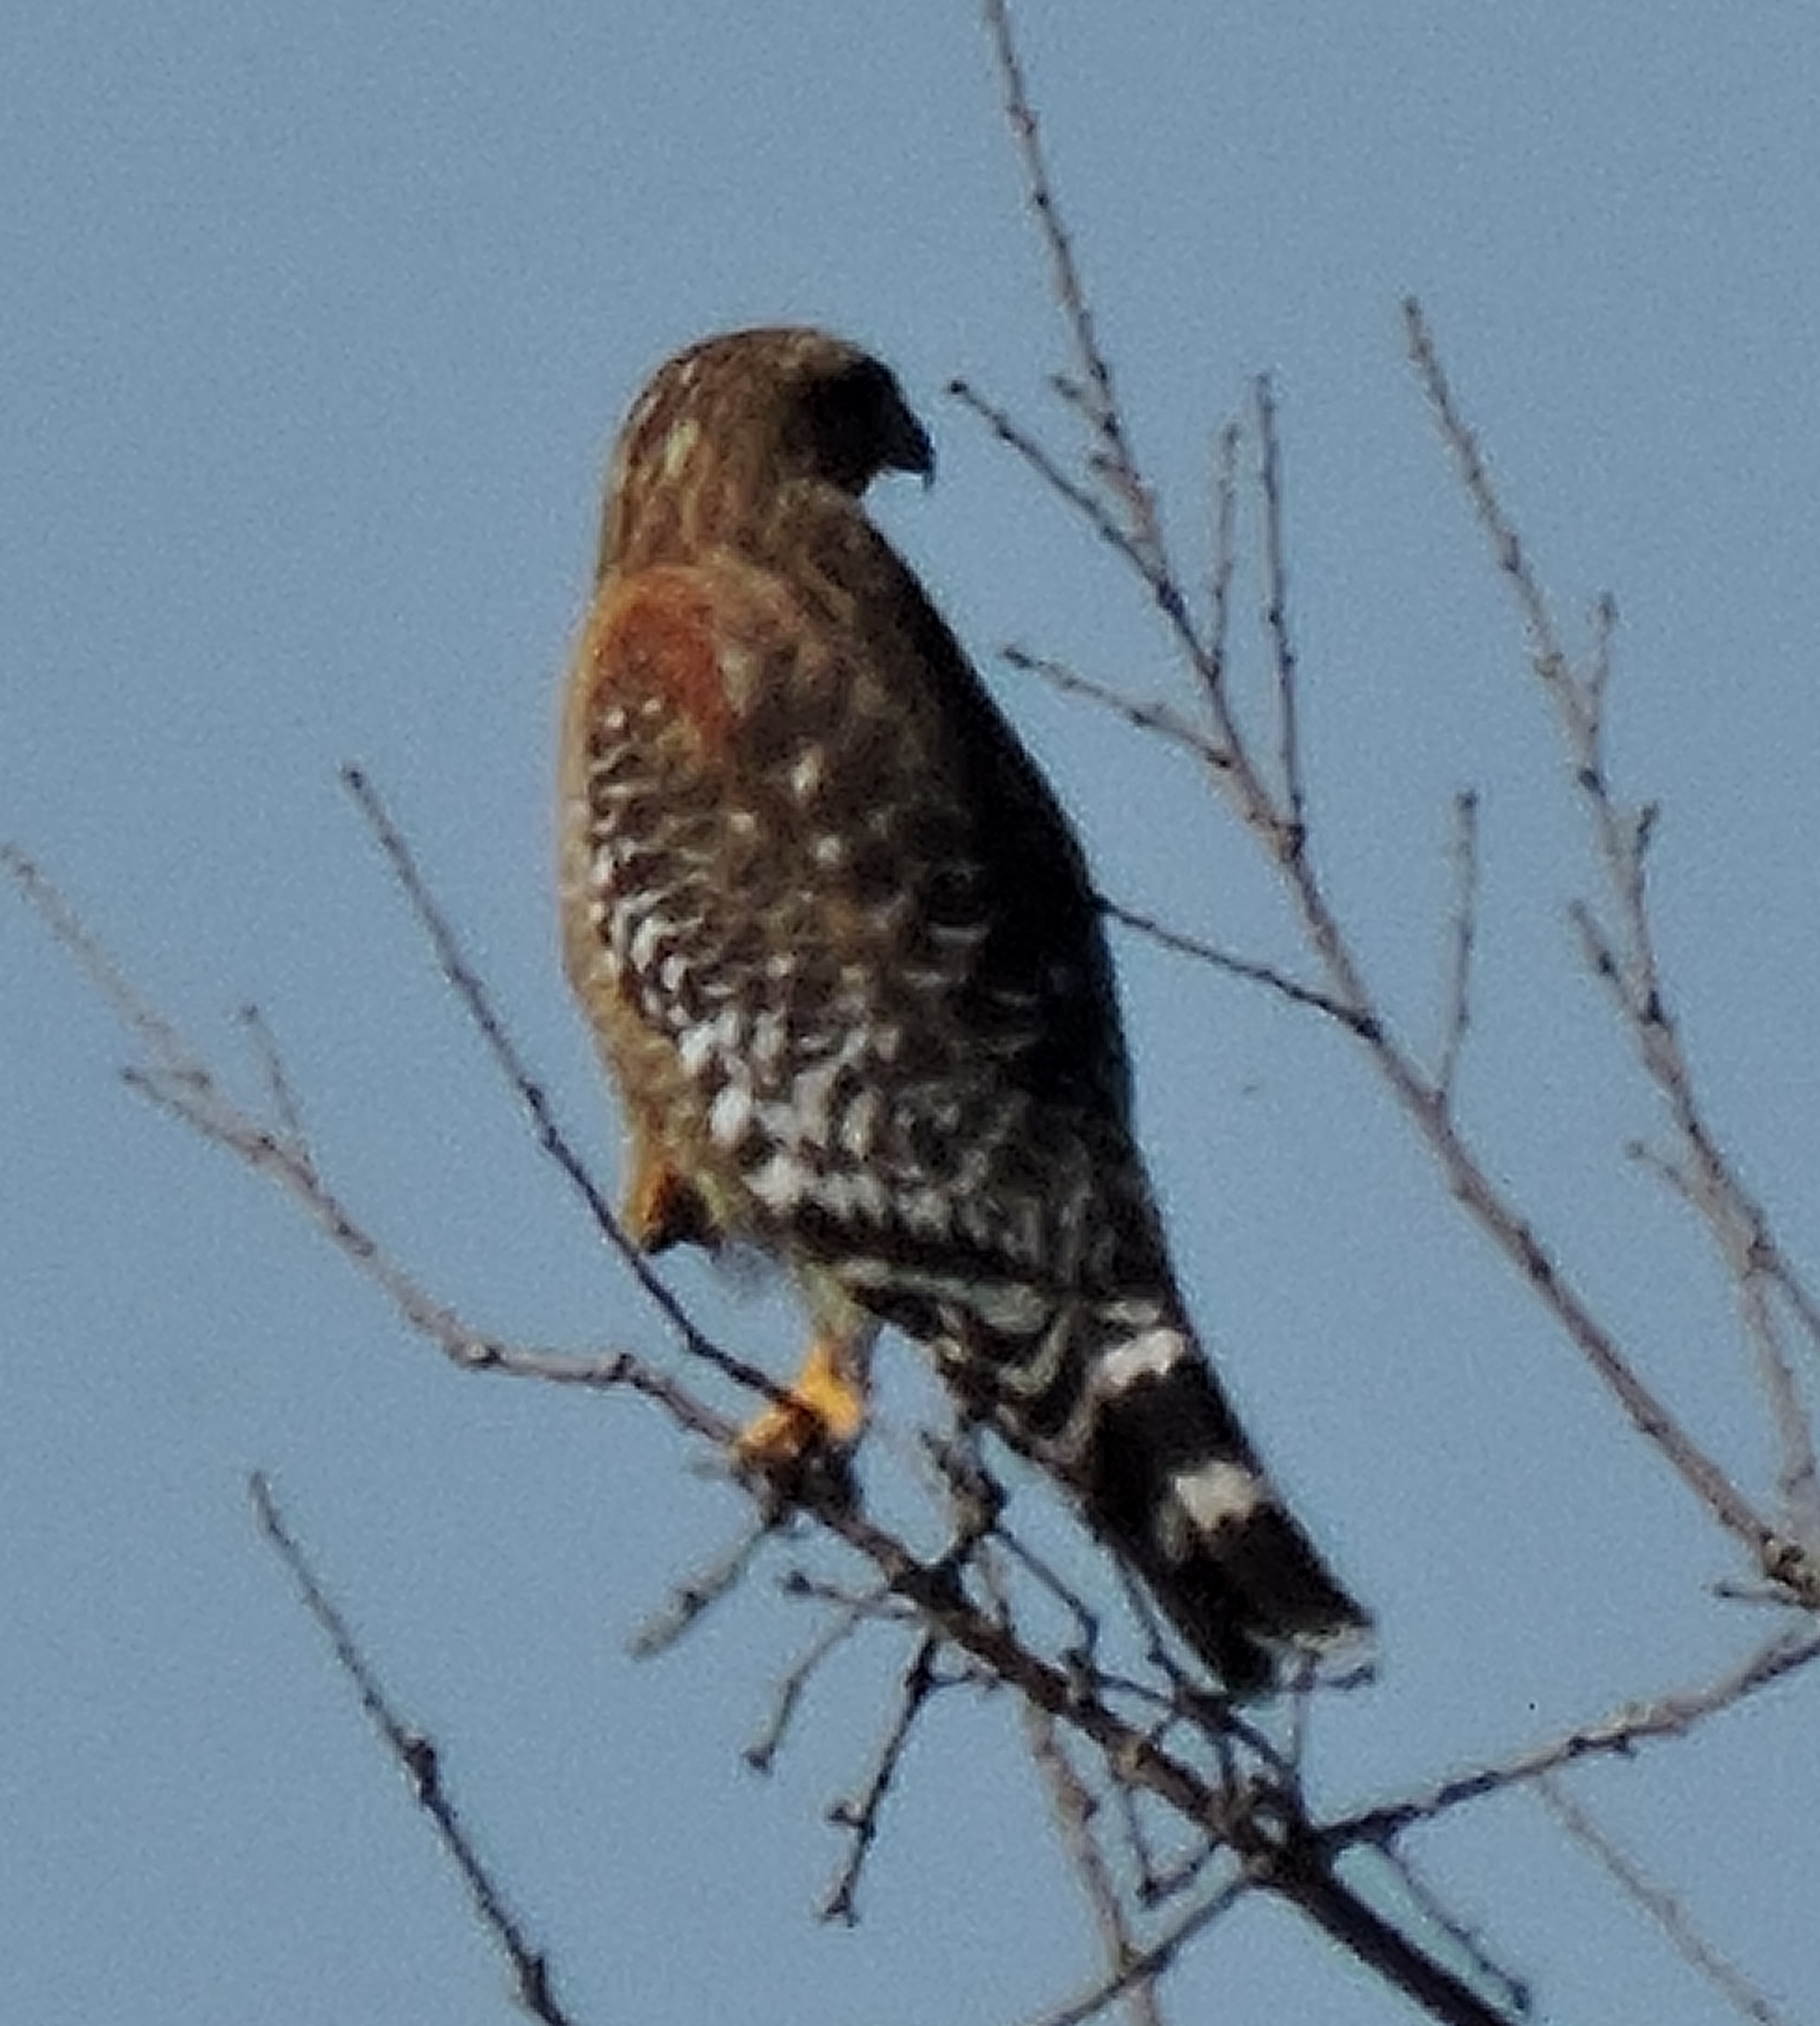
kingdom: Animalia
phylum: Chordata
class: Aves
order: Accipitriformes
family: Accipitridae
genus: Buteo
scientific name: Buteo lineatus
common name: Red-shouldered hawk
